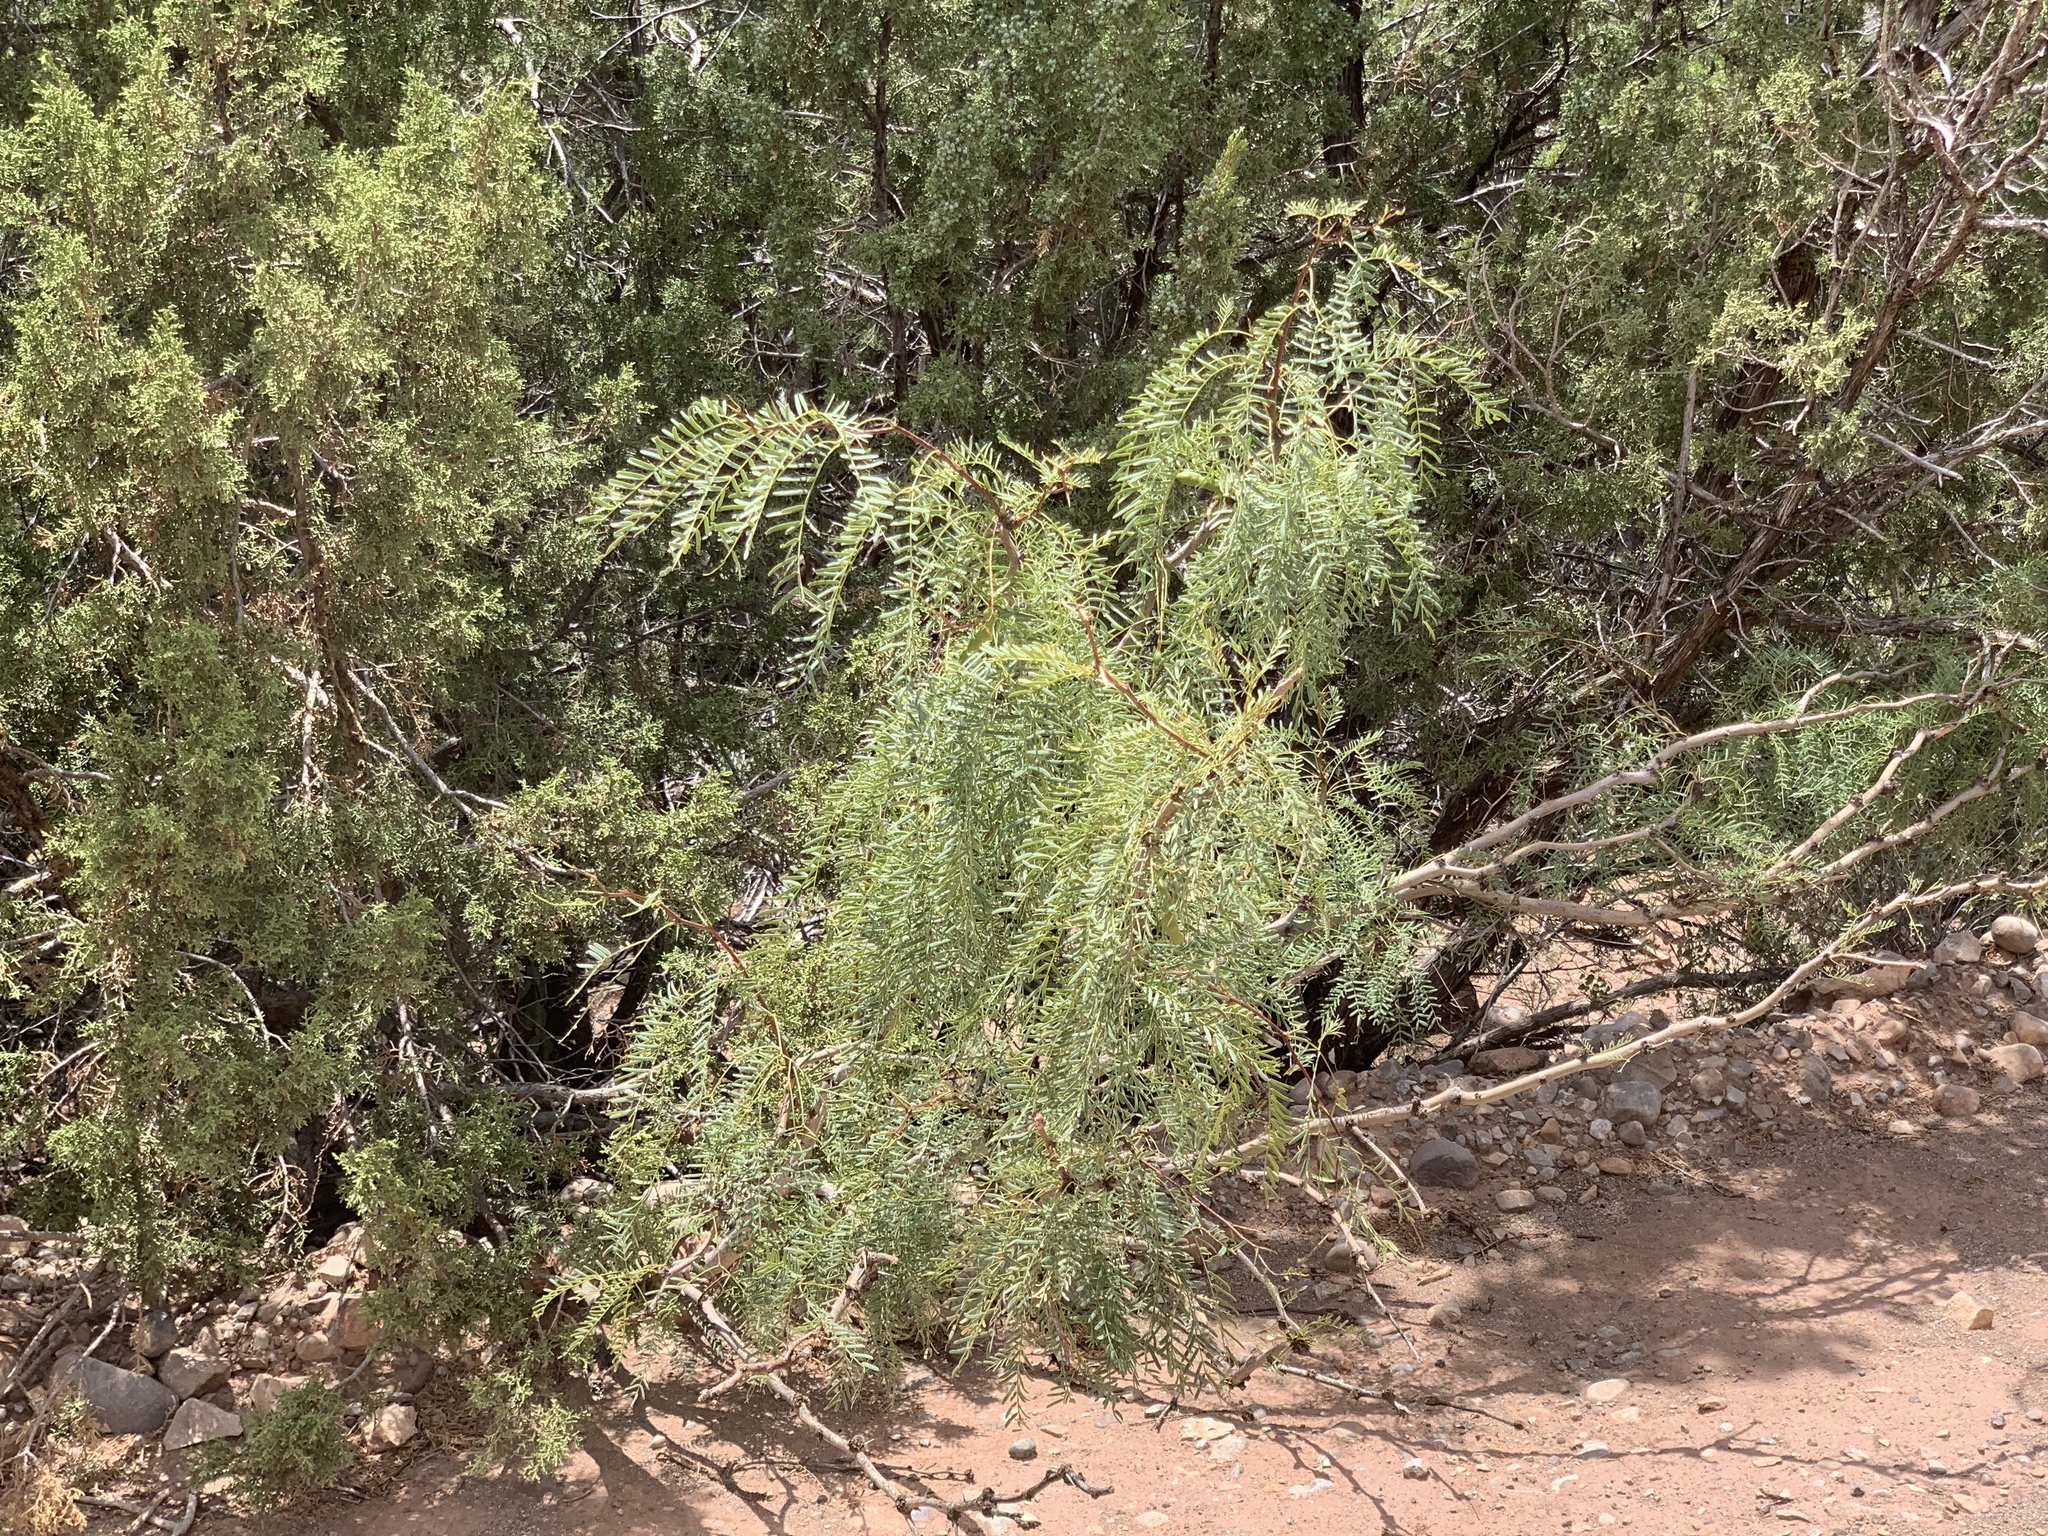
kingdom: Plantae
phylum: Tracheophyta
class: Magnoliopsida
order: Fabales
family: Fabaceae
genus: Prosopis
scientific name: Prosopis glandulosa
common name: Honey mesquite
